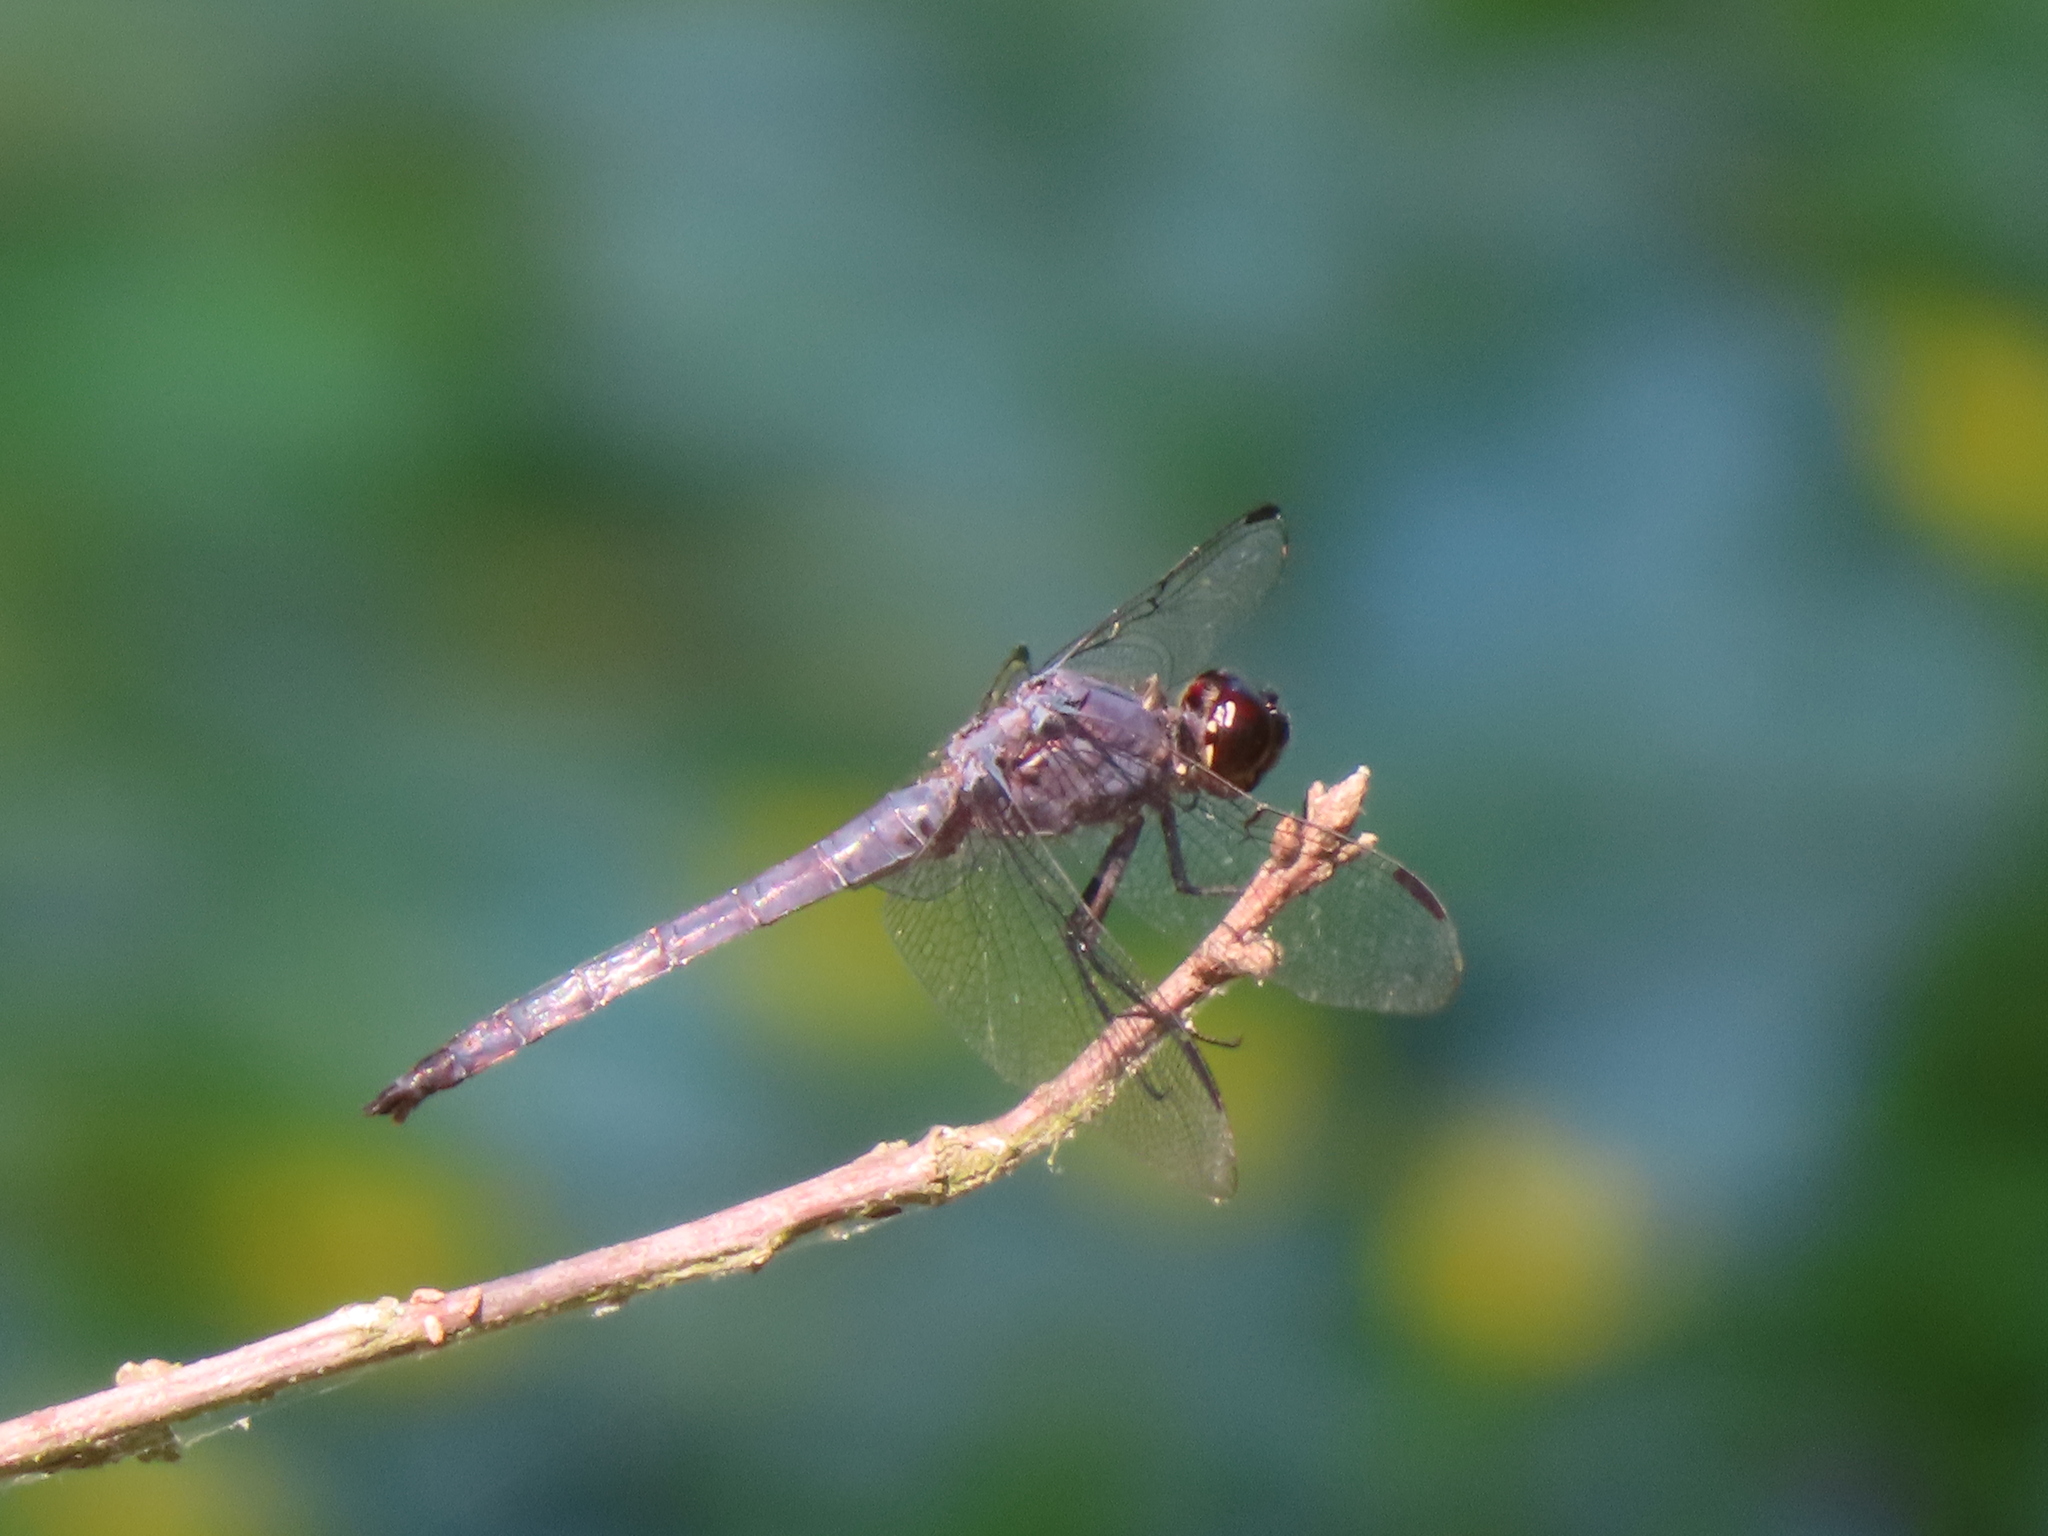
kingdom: Animalia
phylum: Arthropoda
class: Insecta
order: Odonata
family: Libellulidae
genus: Libellula
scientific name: Libellula incesta
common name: Slaty skimmer
